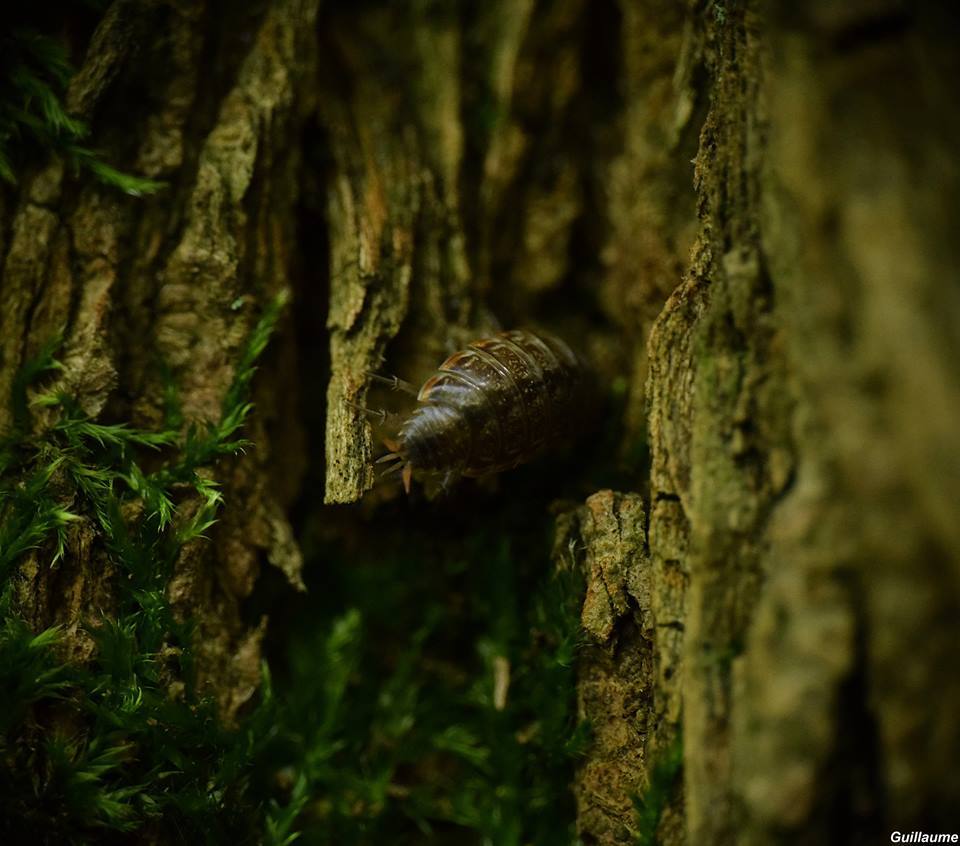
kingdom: Animalia
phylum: Arthropoda
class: Malacostraca
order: Isopoda
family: Philosciidae
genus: Philoscia
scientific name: Philoscia muscorum
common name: Common striped woodlouse
